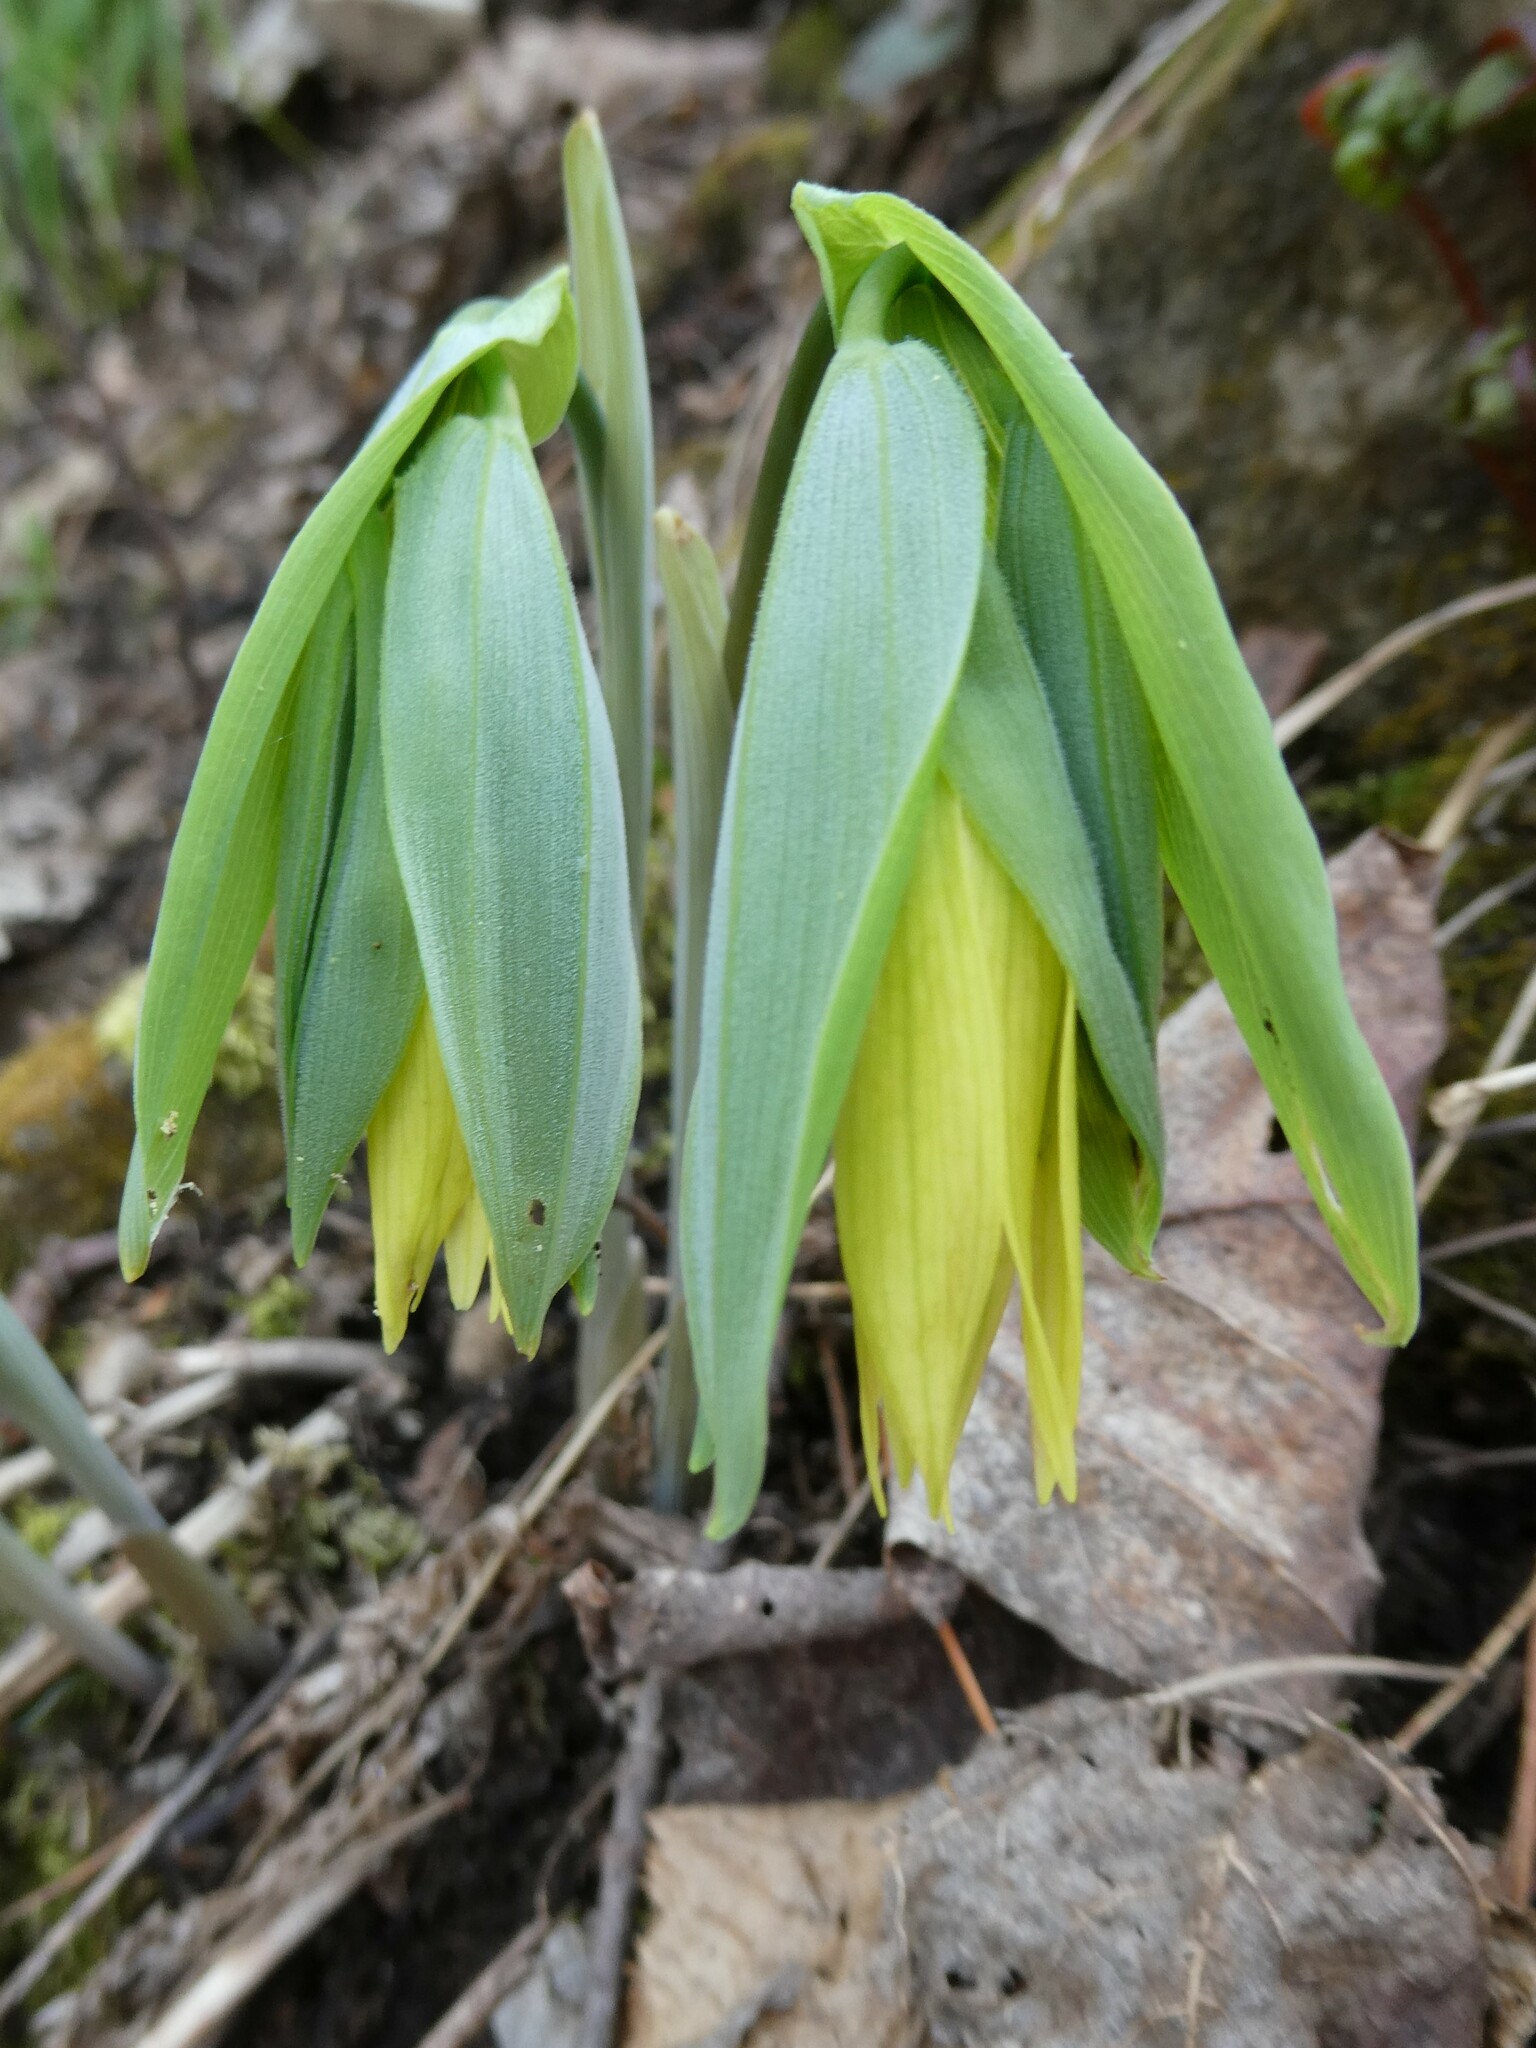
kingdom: Plantae
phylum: Tracheophyta
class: Liliopsida
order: Liliales
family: Colchicaceae
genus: Uvularia
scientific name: Uvularia grandiflora
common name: Bellwort
